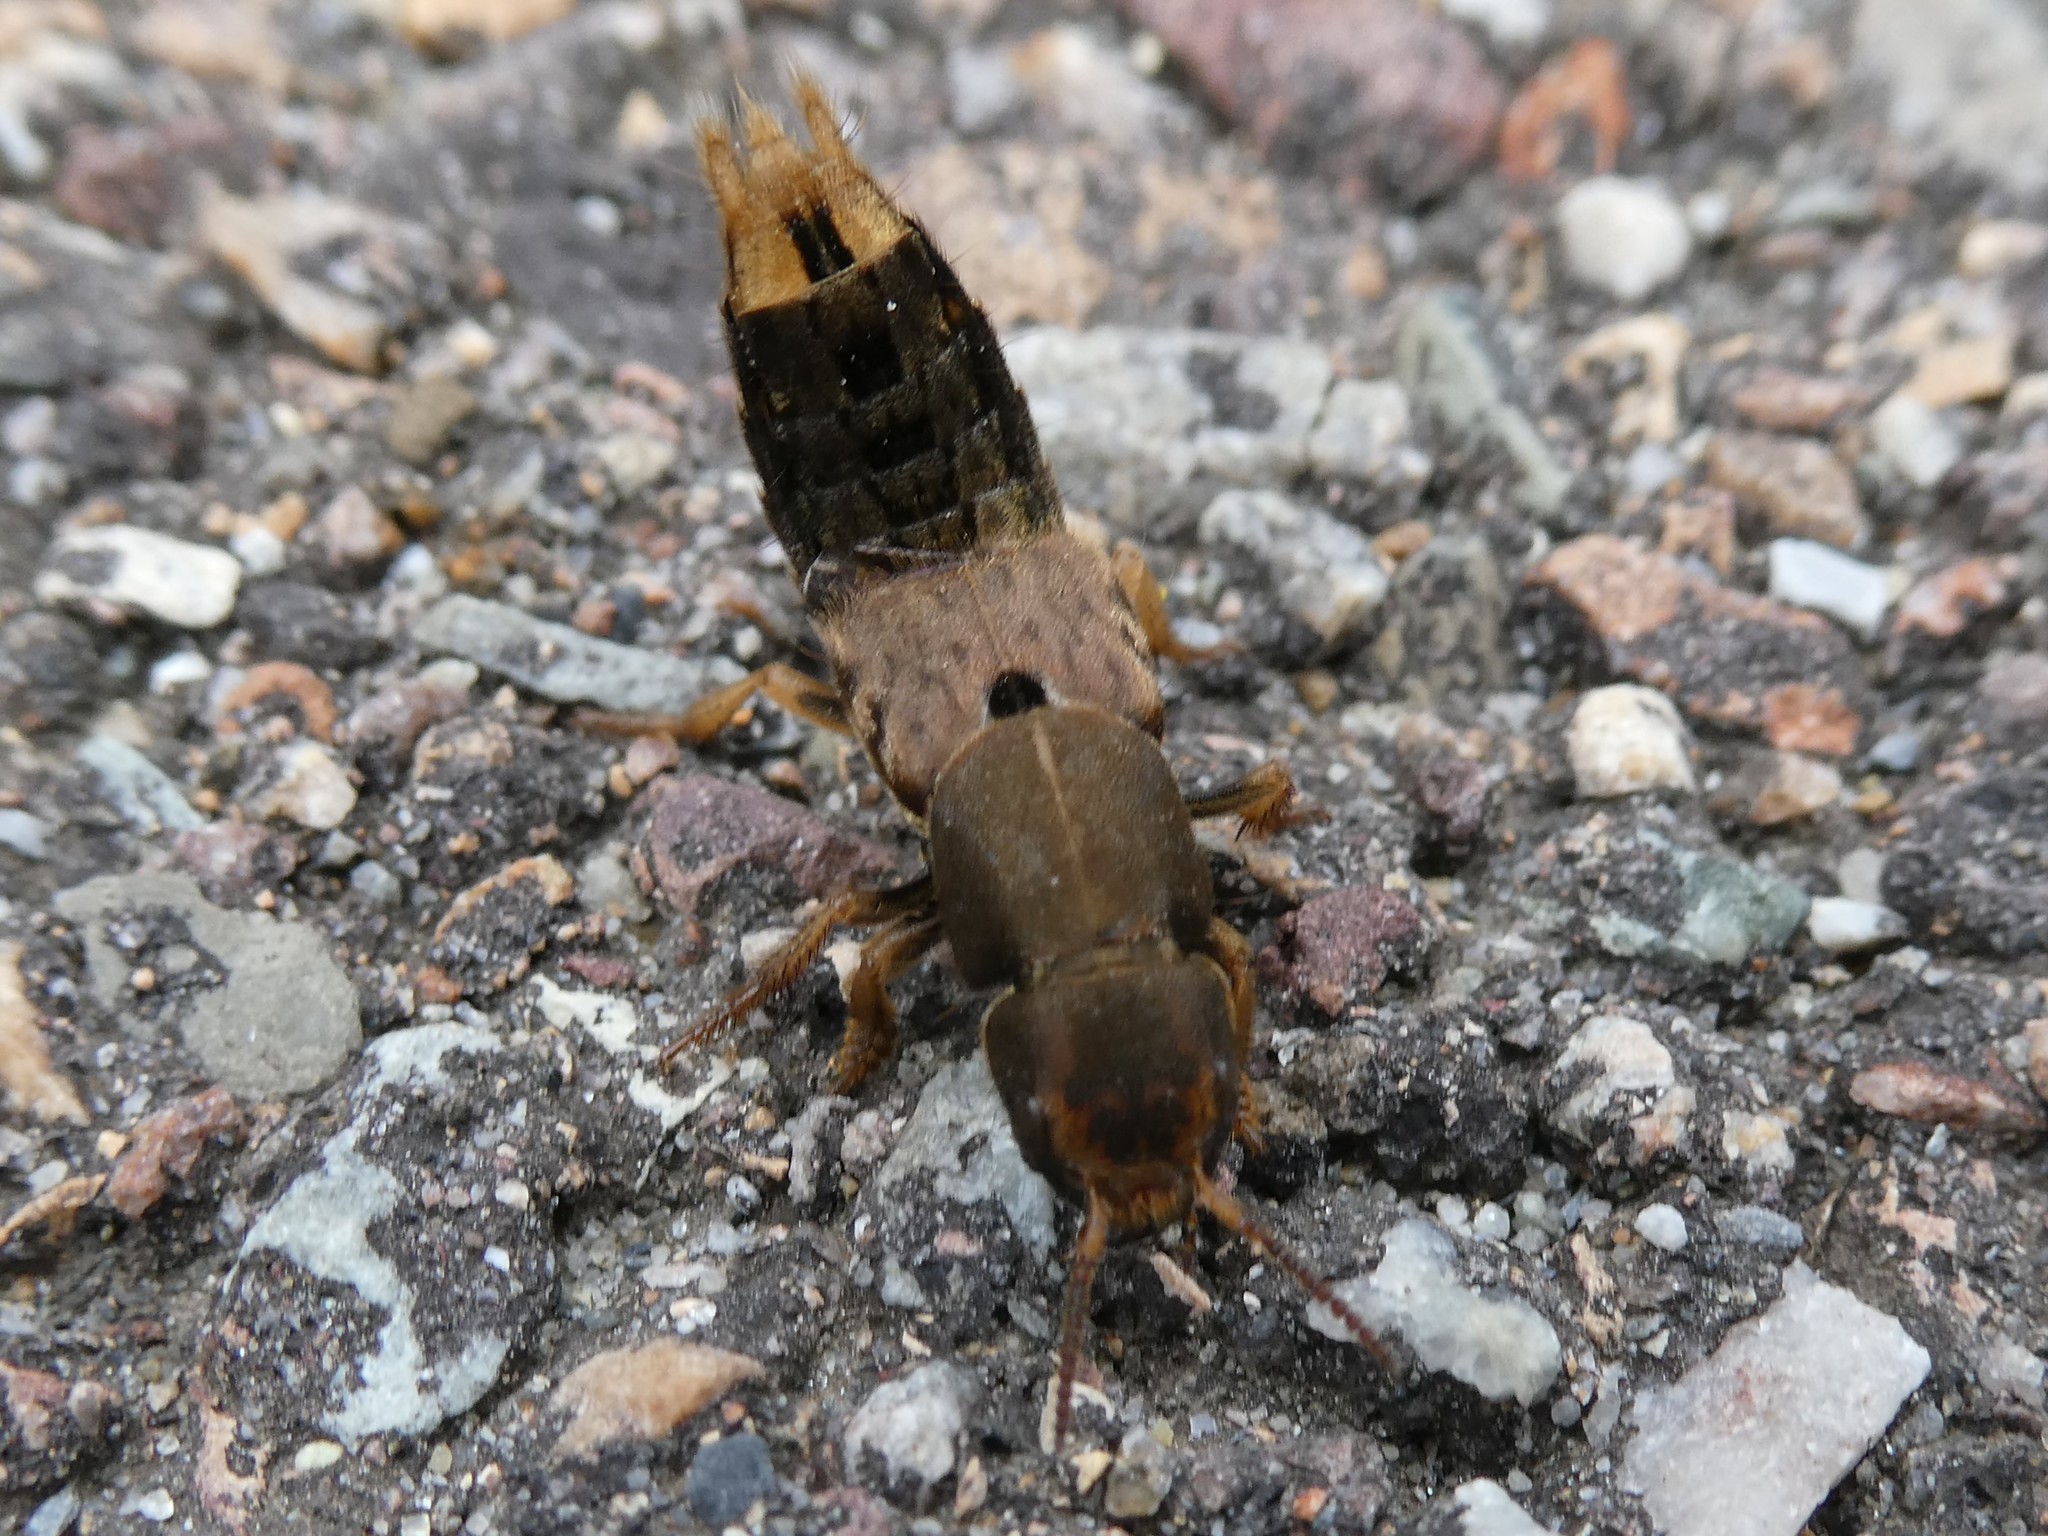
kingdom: Animalia
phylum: Arthropoda
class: Insecta
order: Coleoptera
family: Staphylinidae
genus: Platydracus
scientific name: Platydracus maculosus
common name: Brown rove beetle
